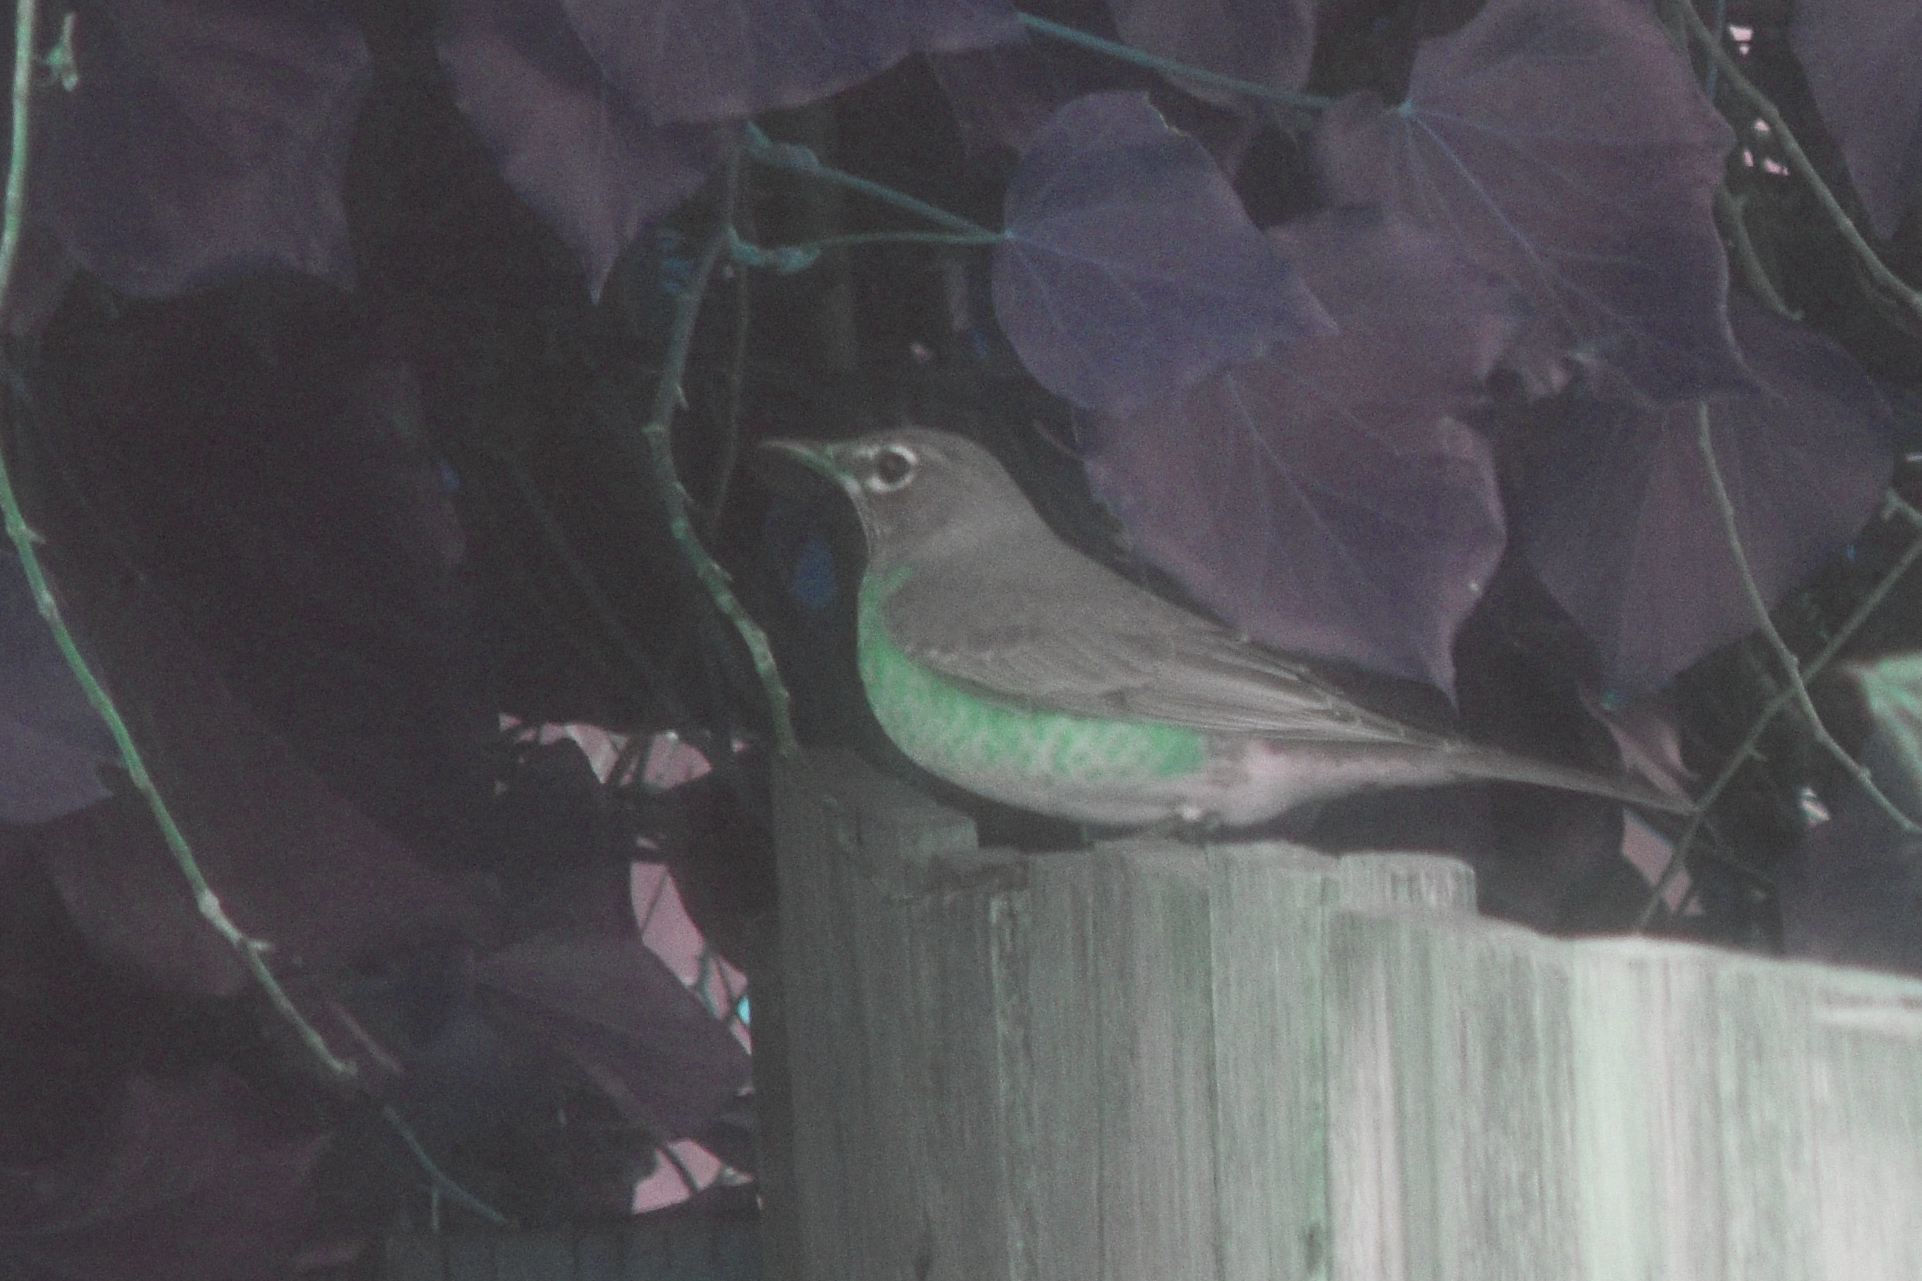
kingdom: Animalia
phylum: Chordata
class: Aves
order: Passeriformes
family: Turdidae
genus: Turdus
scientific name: Turdus migratorius
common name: American robin
